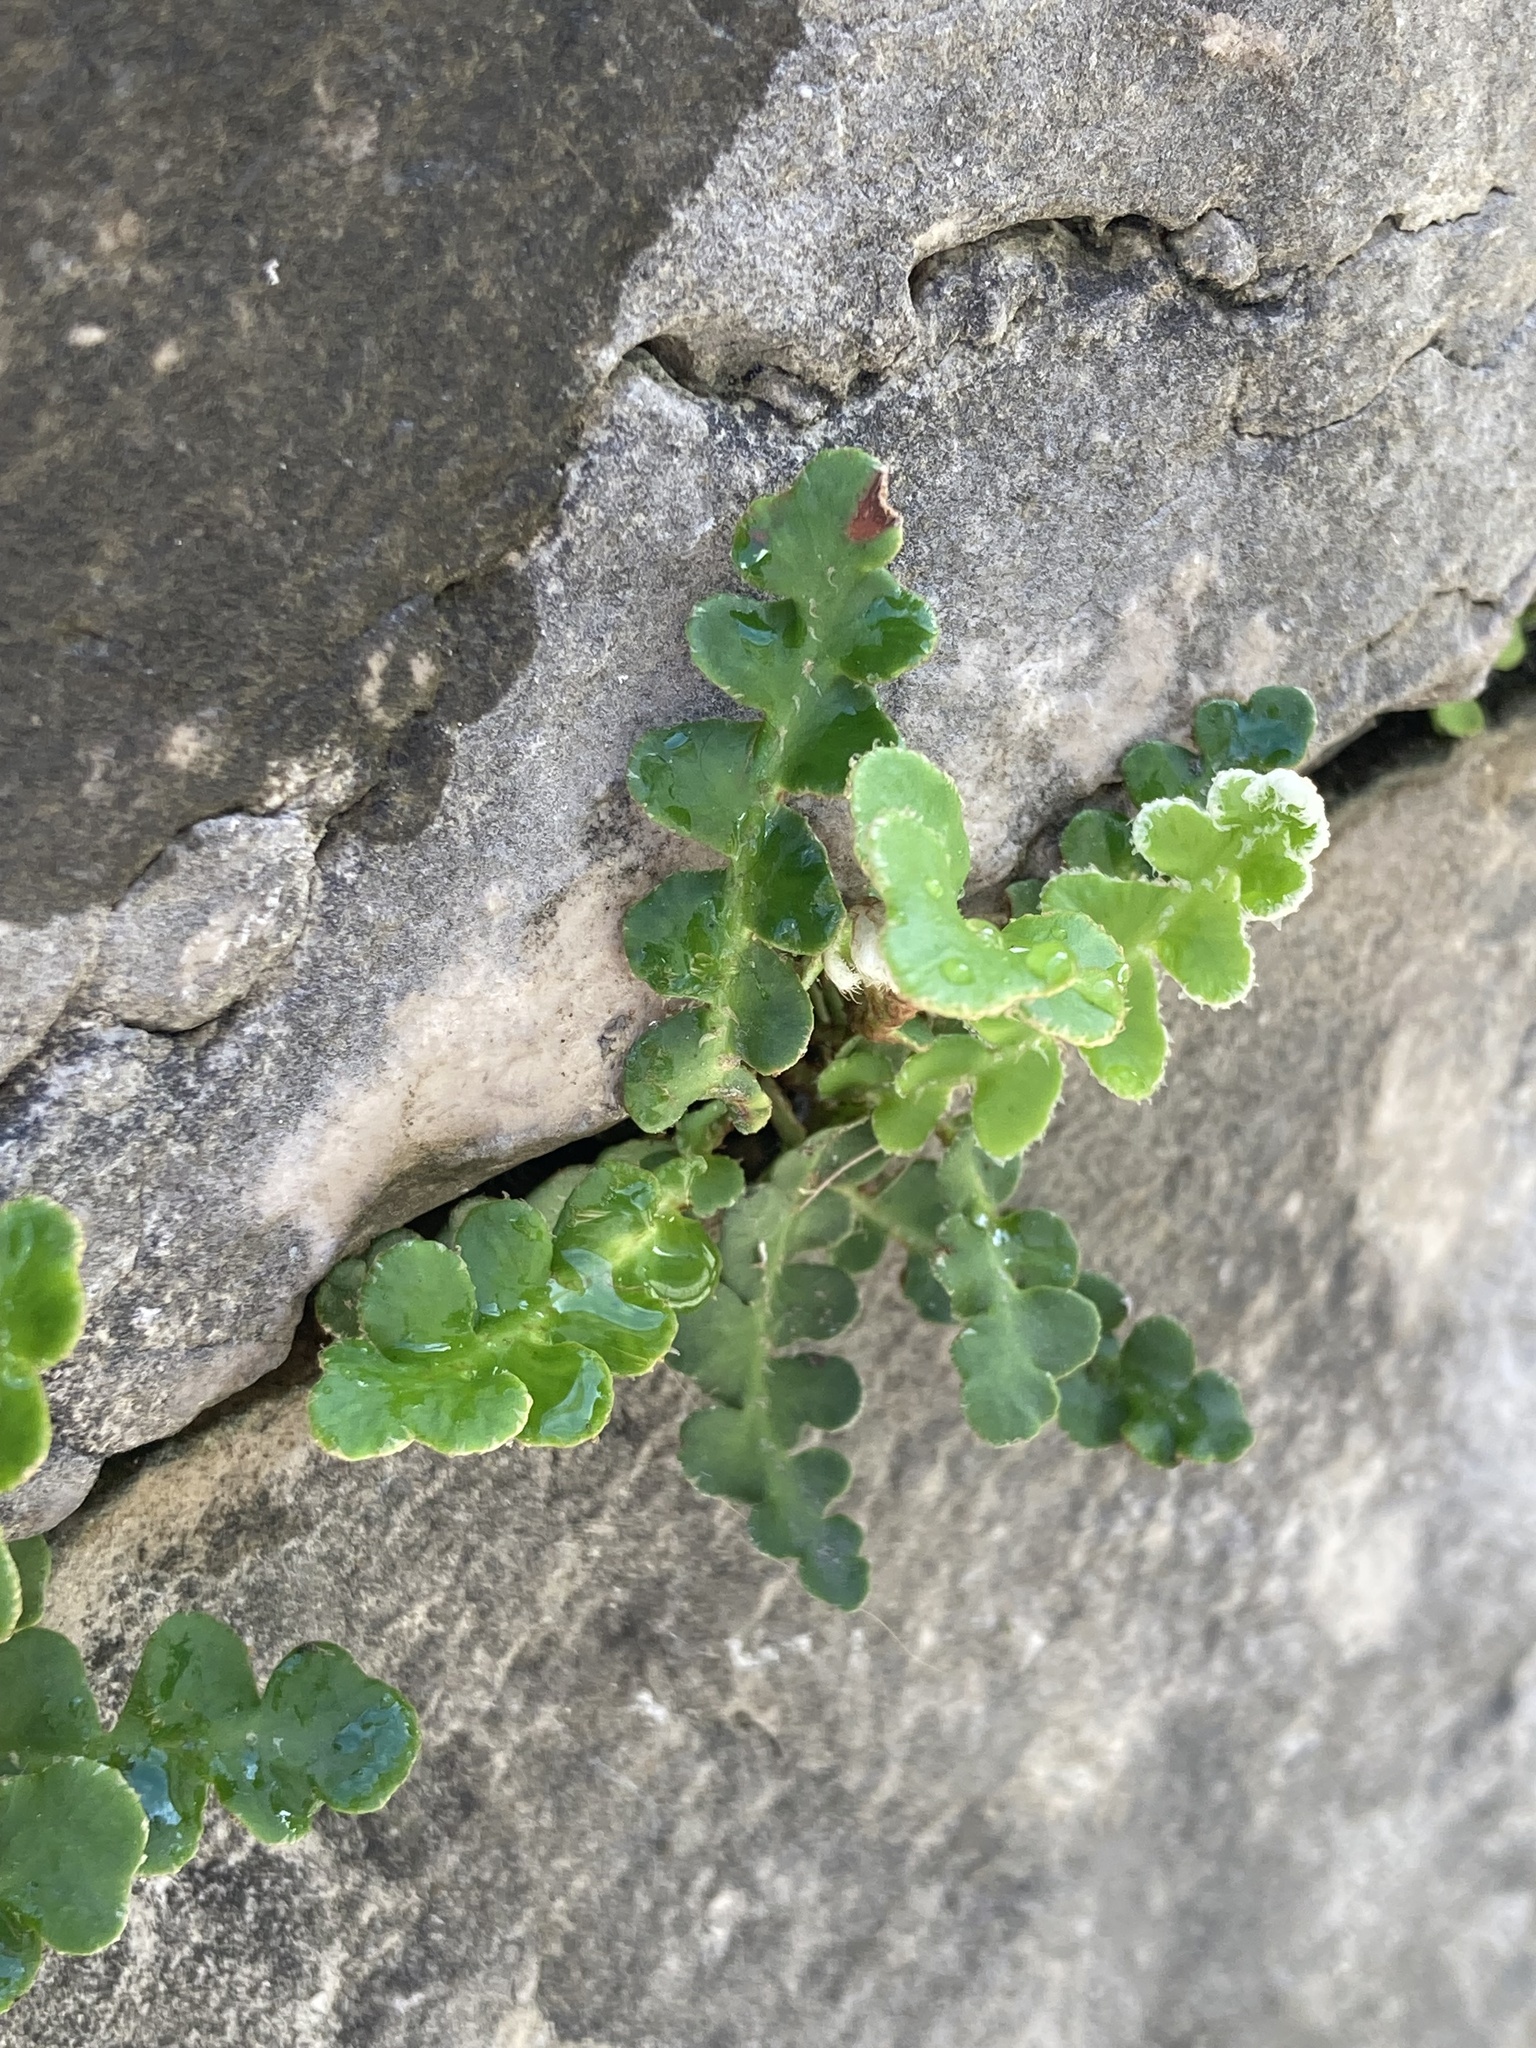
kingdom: Plantae
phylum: Tracheophyta
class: Polypodiopsida
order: Polypodiales
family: Aspleniaceae
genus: Asplenium
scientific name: Asplenium ceterach
